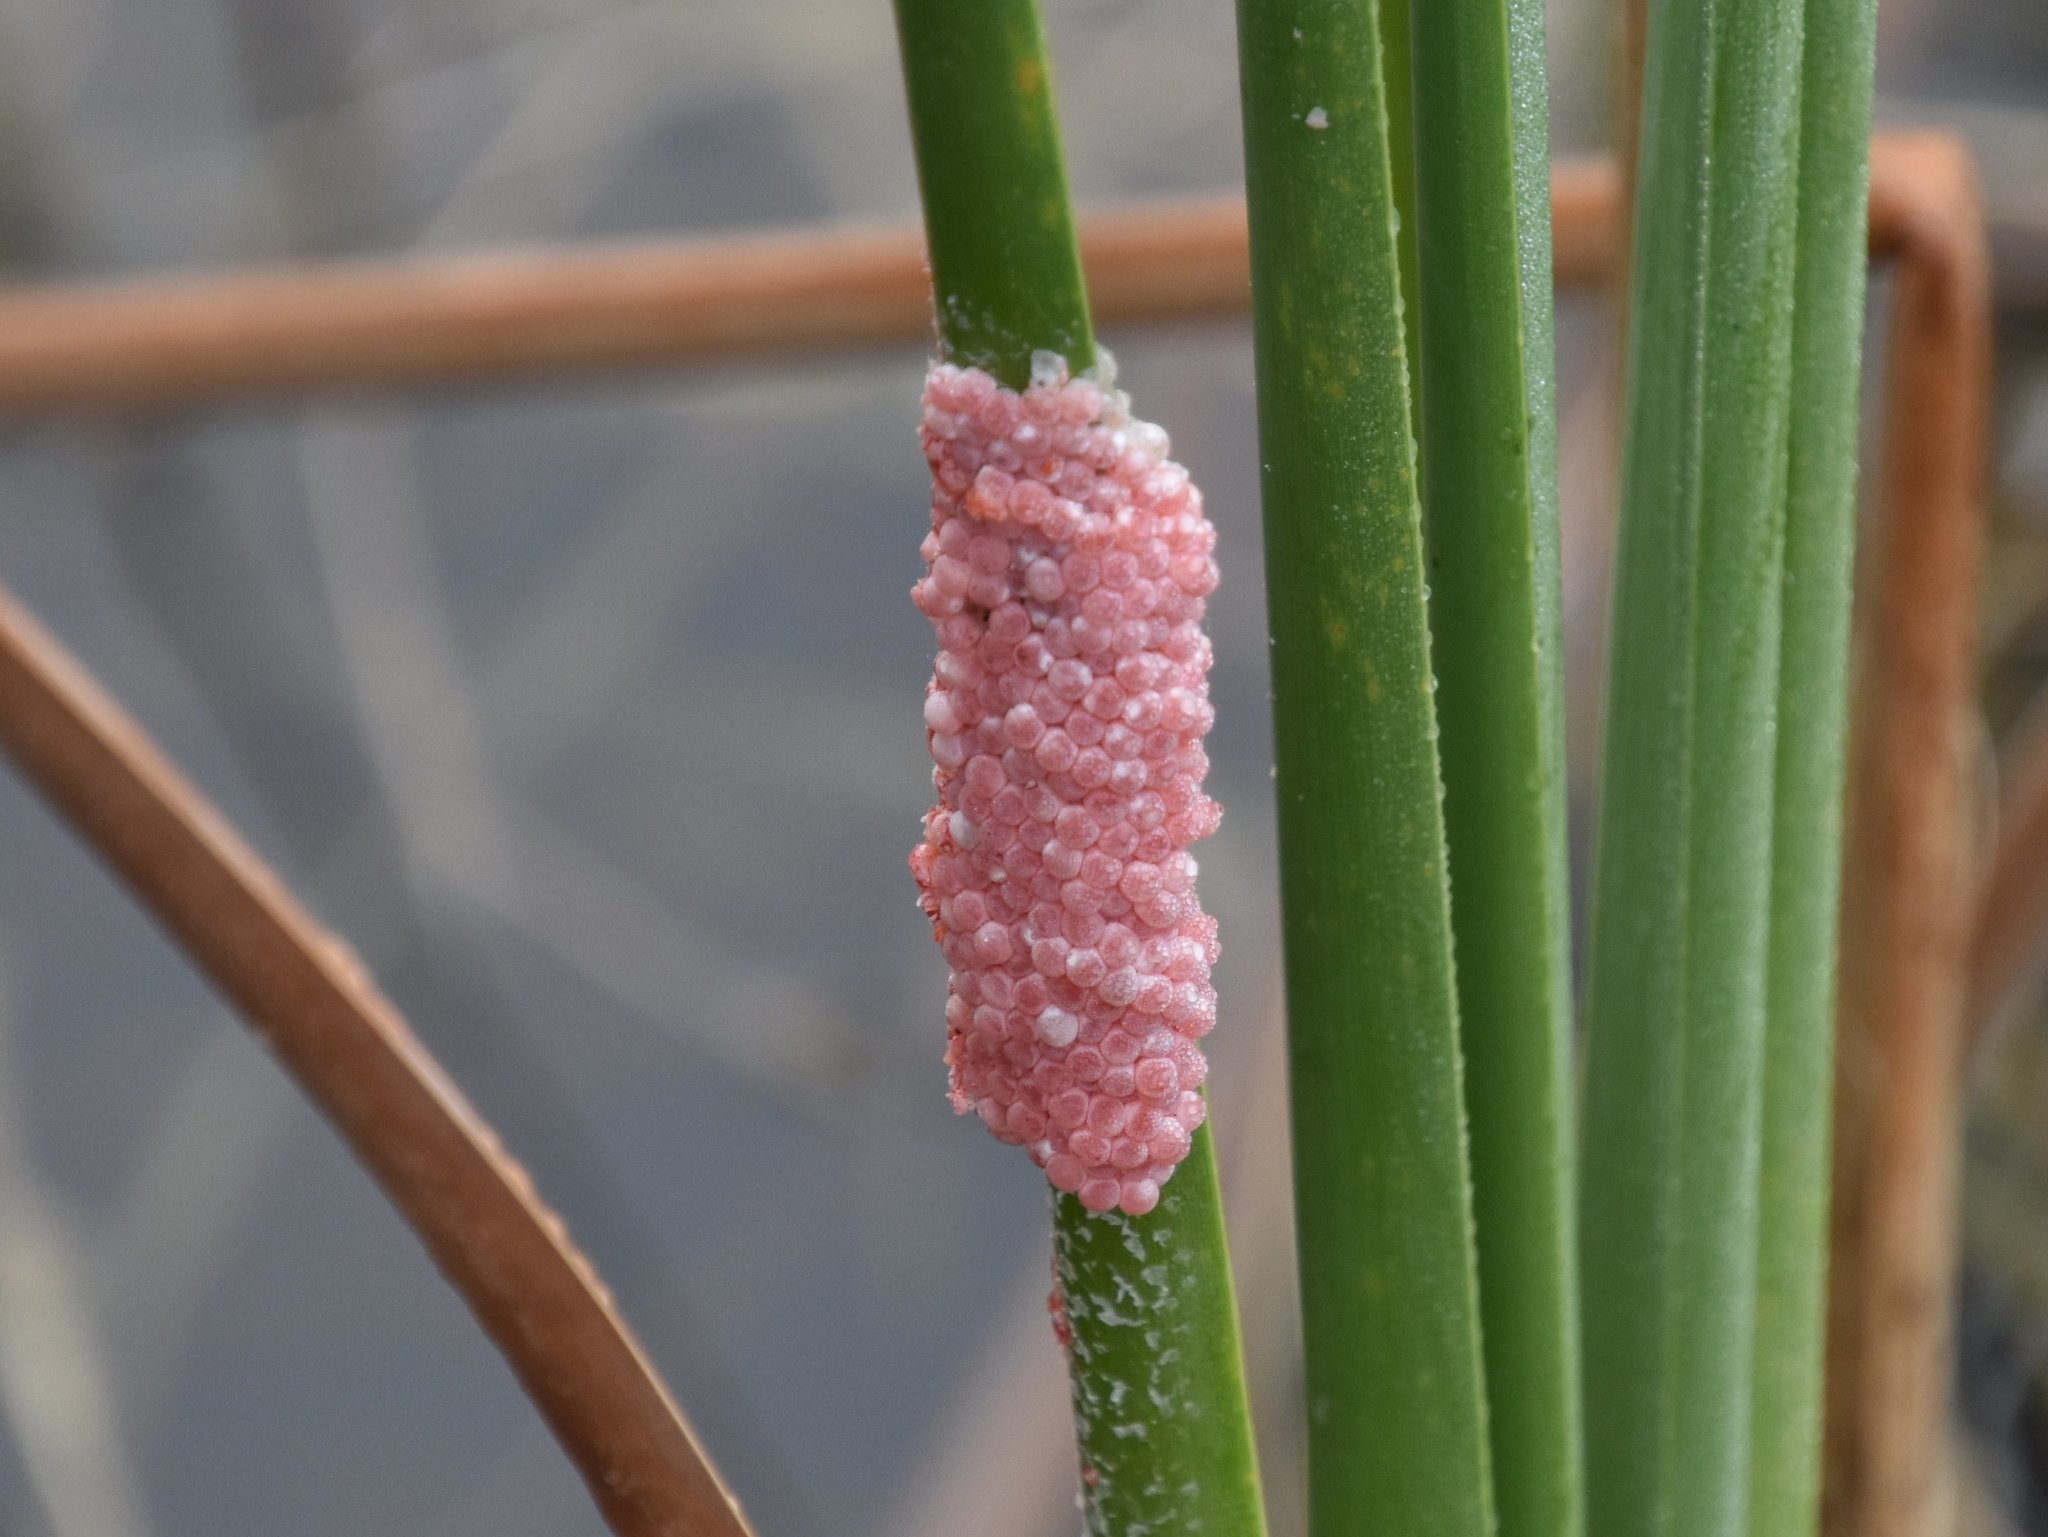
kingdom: Animalia
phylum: Mollusca
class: Gastropoda
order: Architaenioglossa
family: Ampullariidae
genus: Pomacea
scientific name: Pomacea maculata
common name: Giant applesnail
